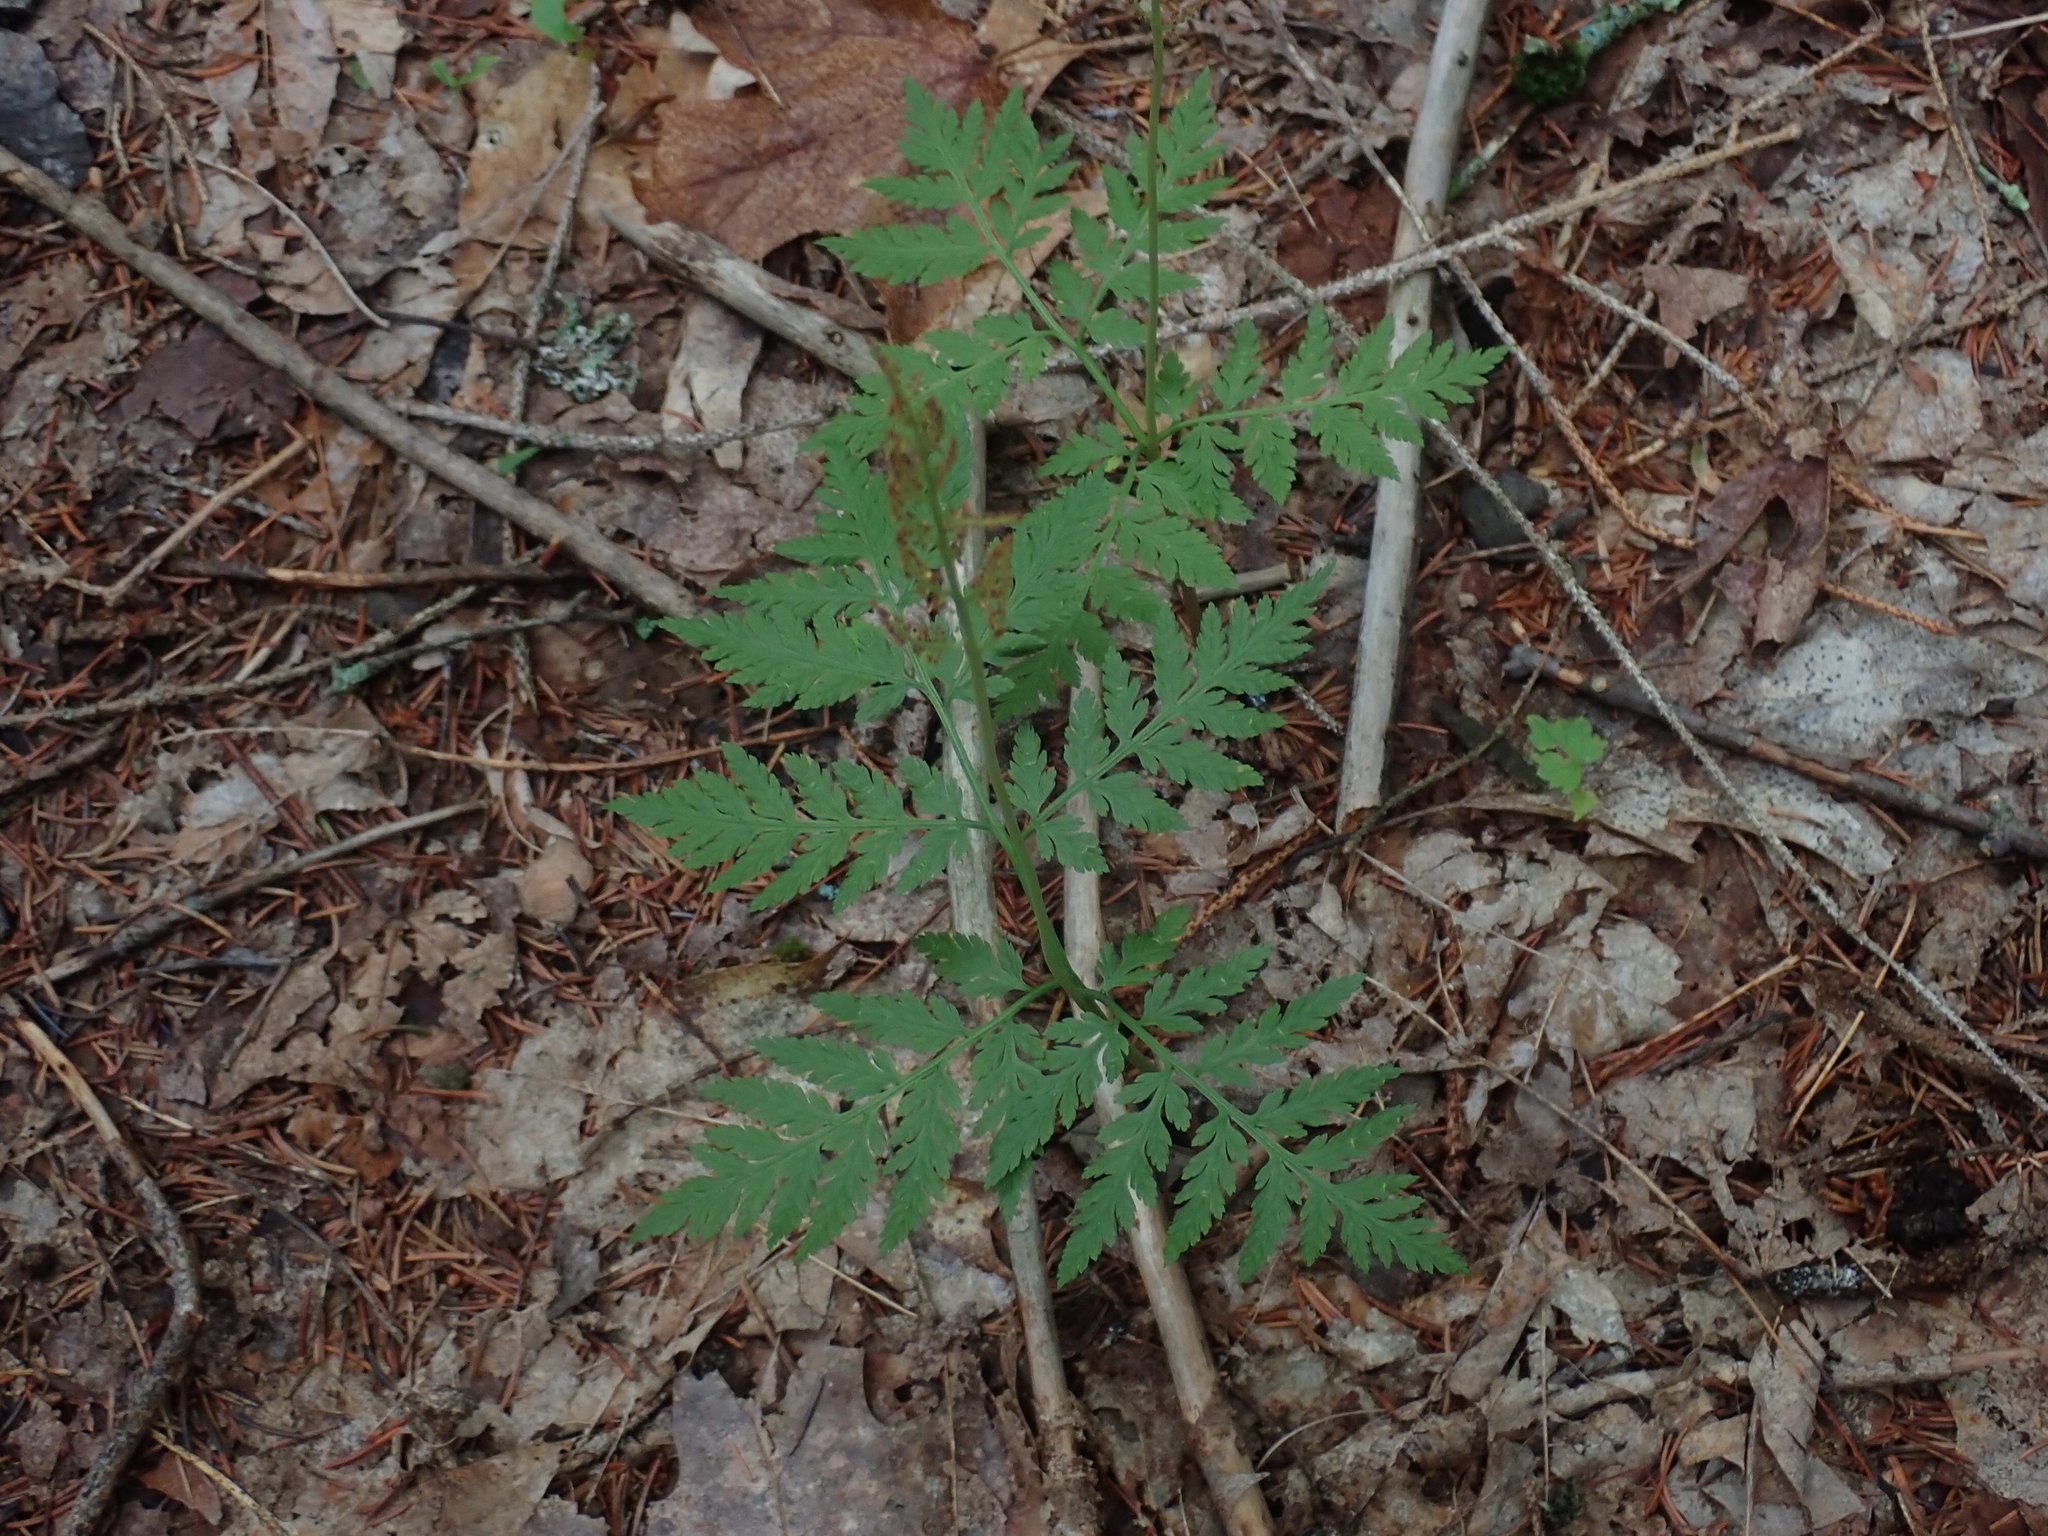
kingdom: Plantae
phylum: Tracheophyta
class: Polypodiopsida
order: Ophioglossales
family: Ophioglossaceae
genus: Botrypus
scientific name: Botrypus virginianus
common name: Common grapefern
